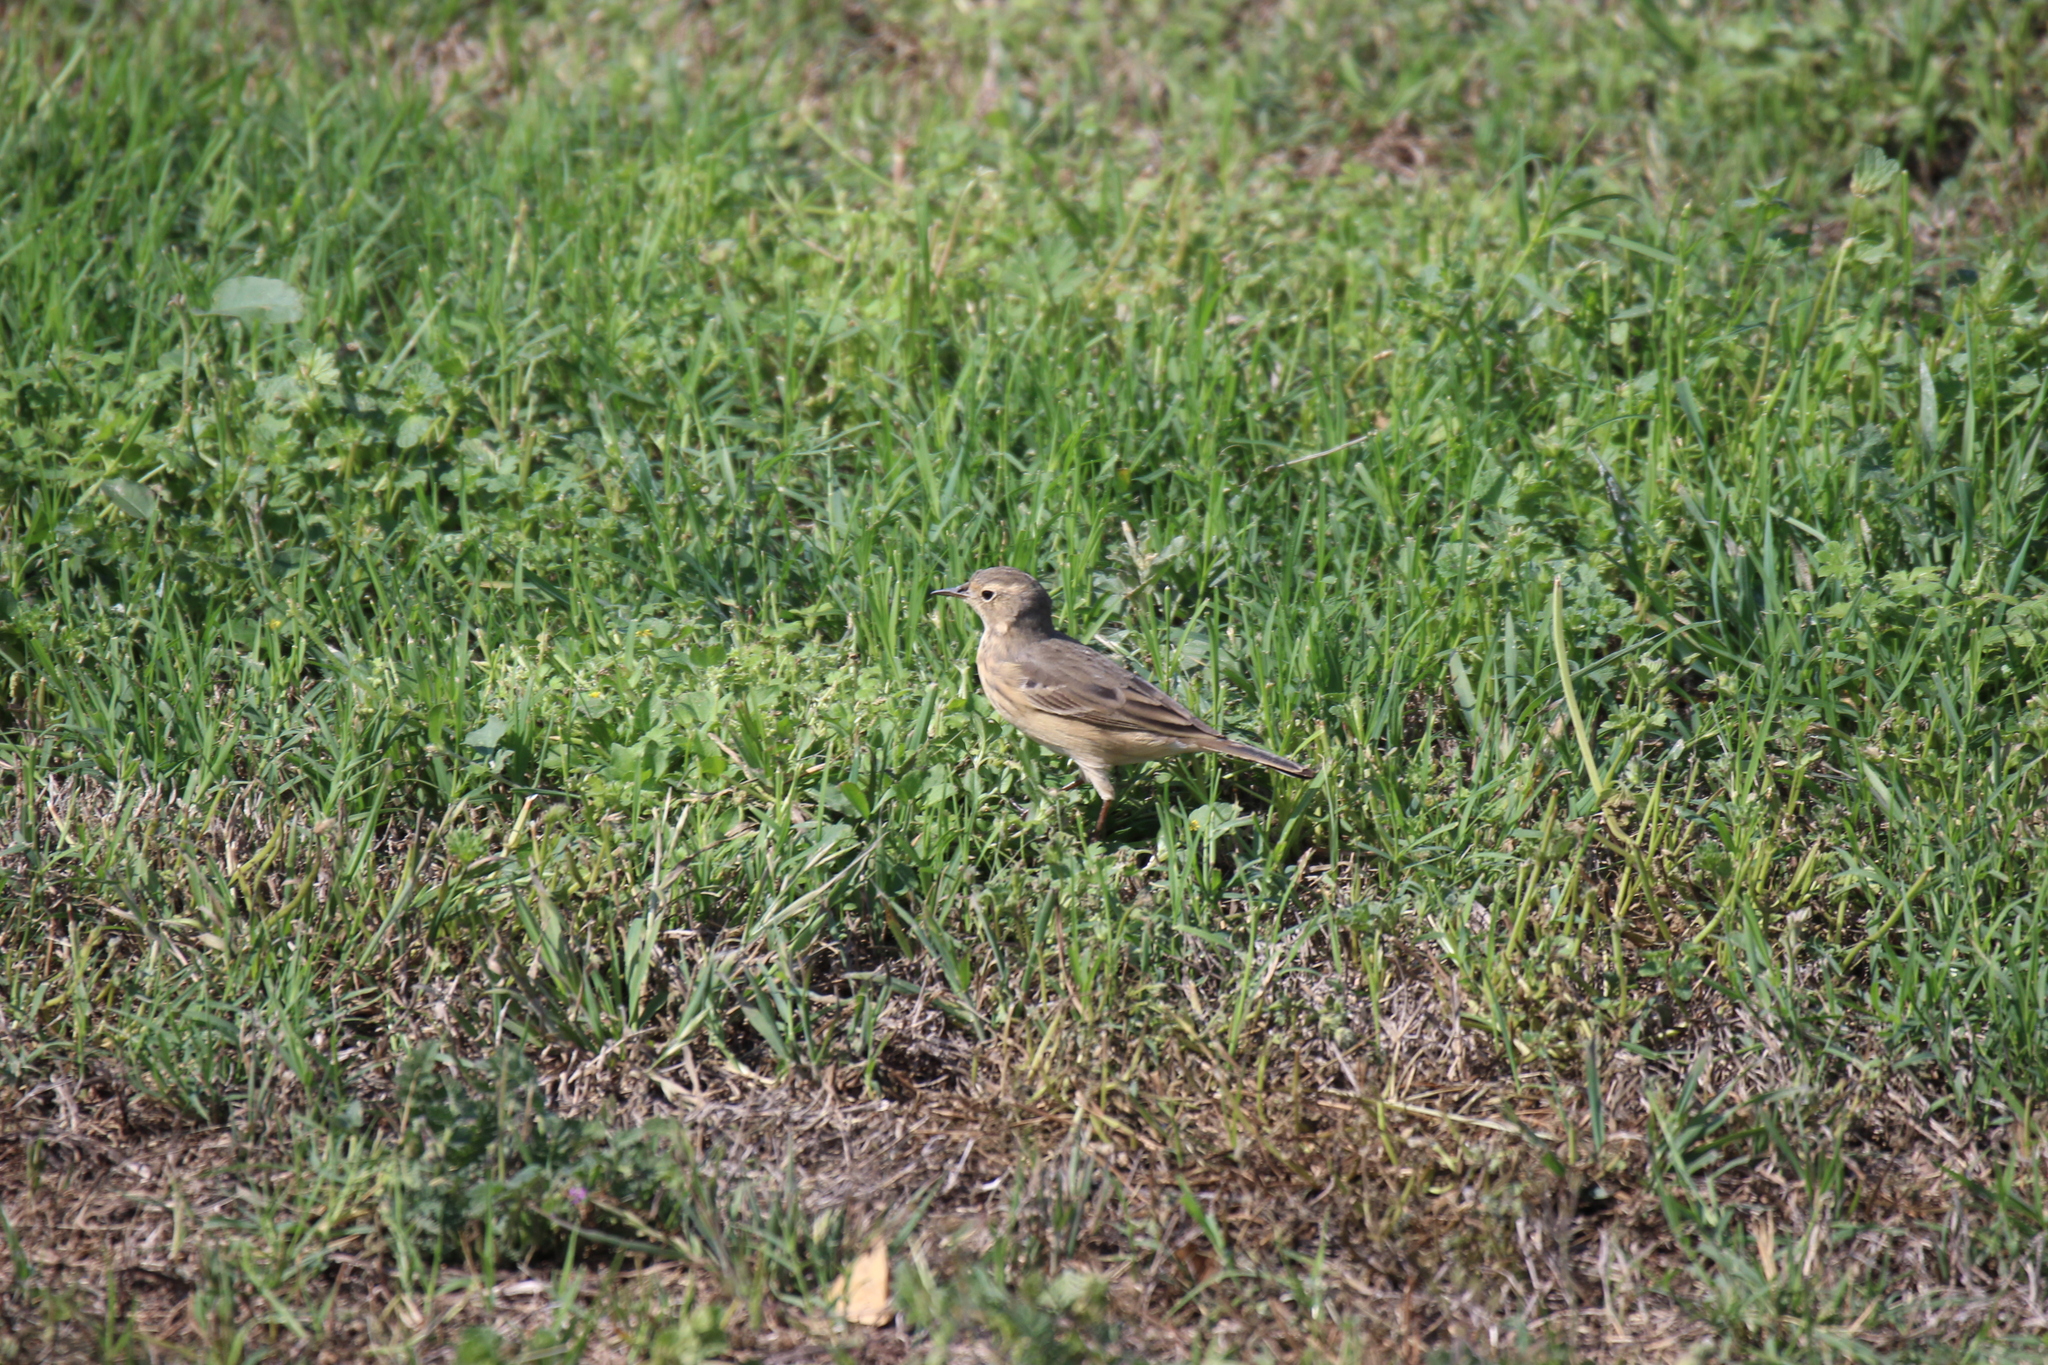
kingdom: Animalia
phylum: Chordata
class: Aves
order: Passeriformes
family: Motacillidae
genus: Anthus
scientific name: Anthus rubescens
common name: Buff-bellied pipit
